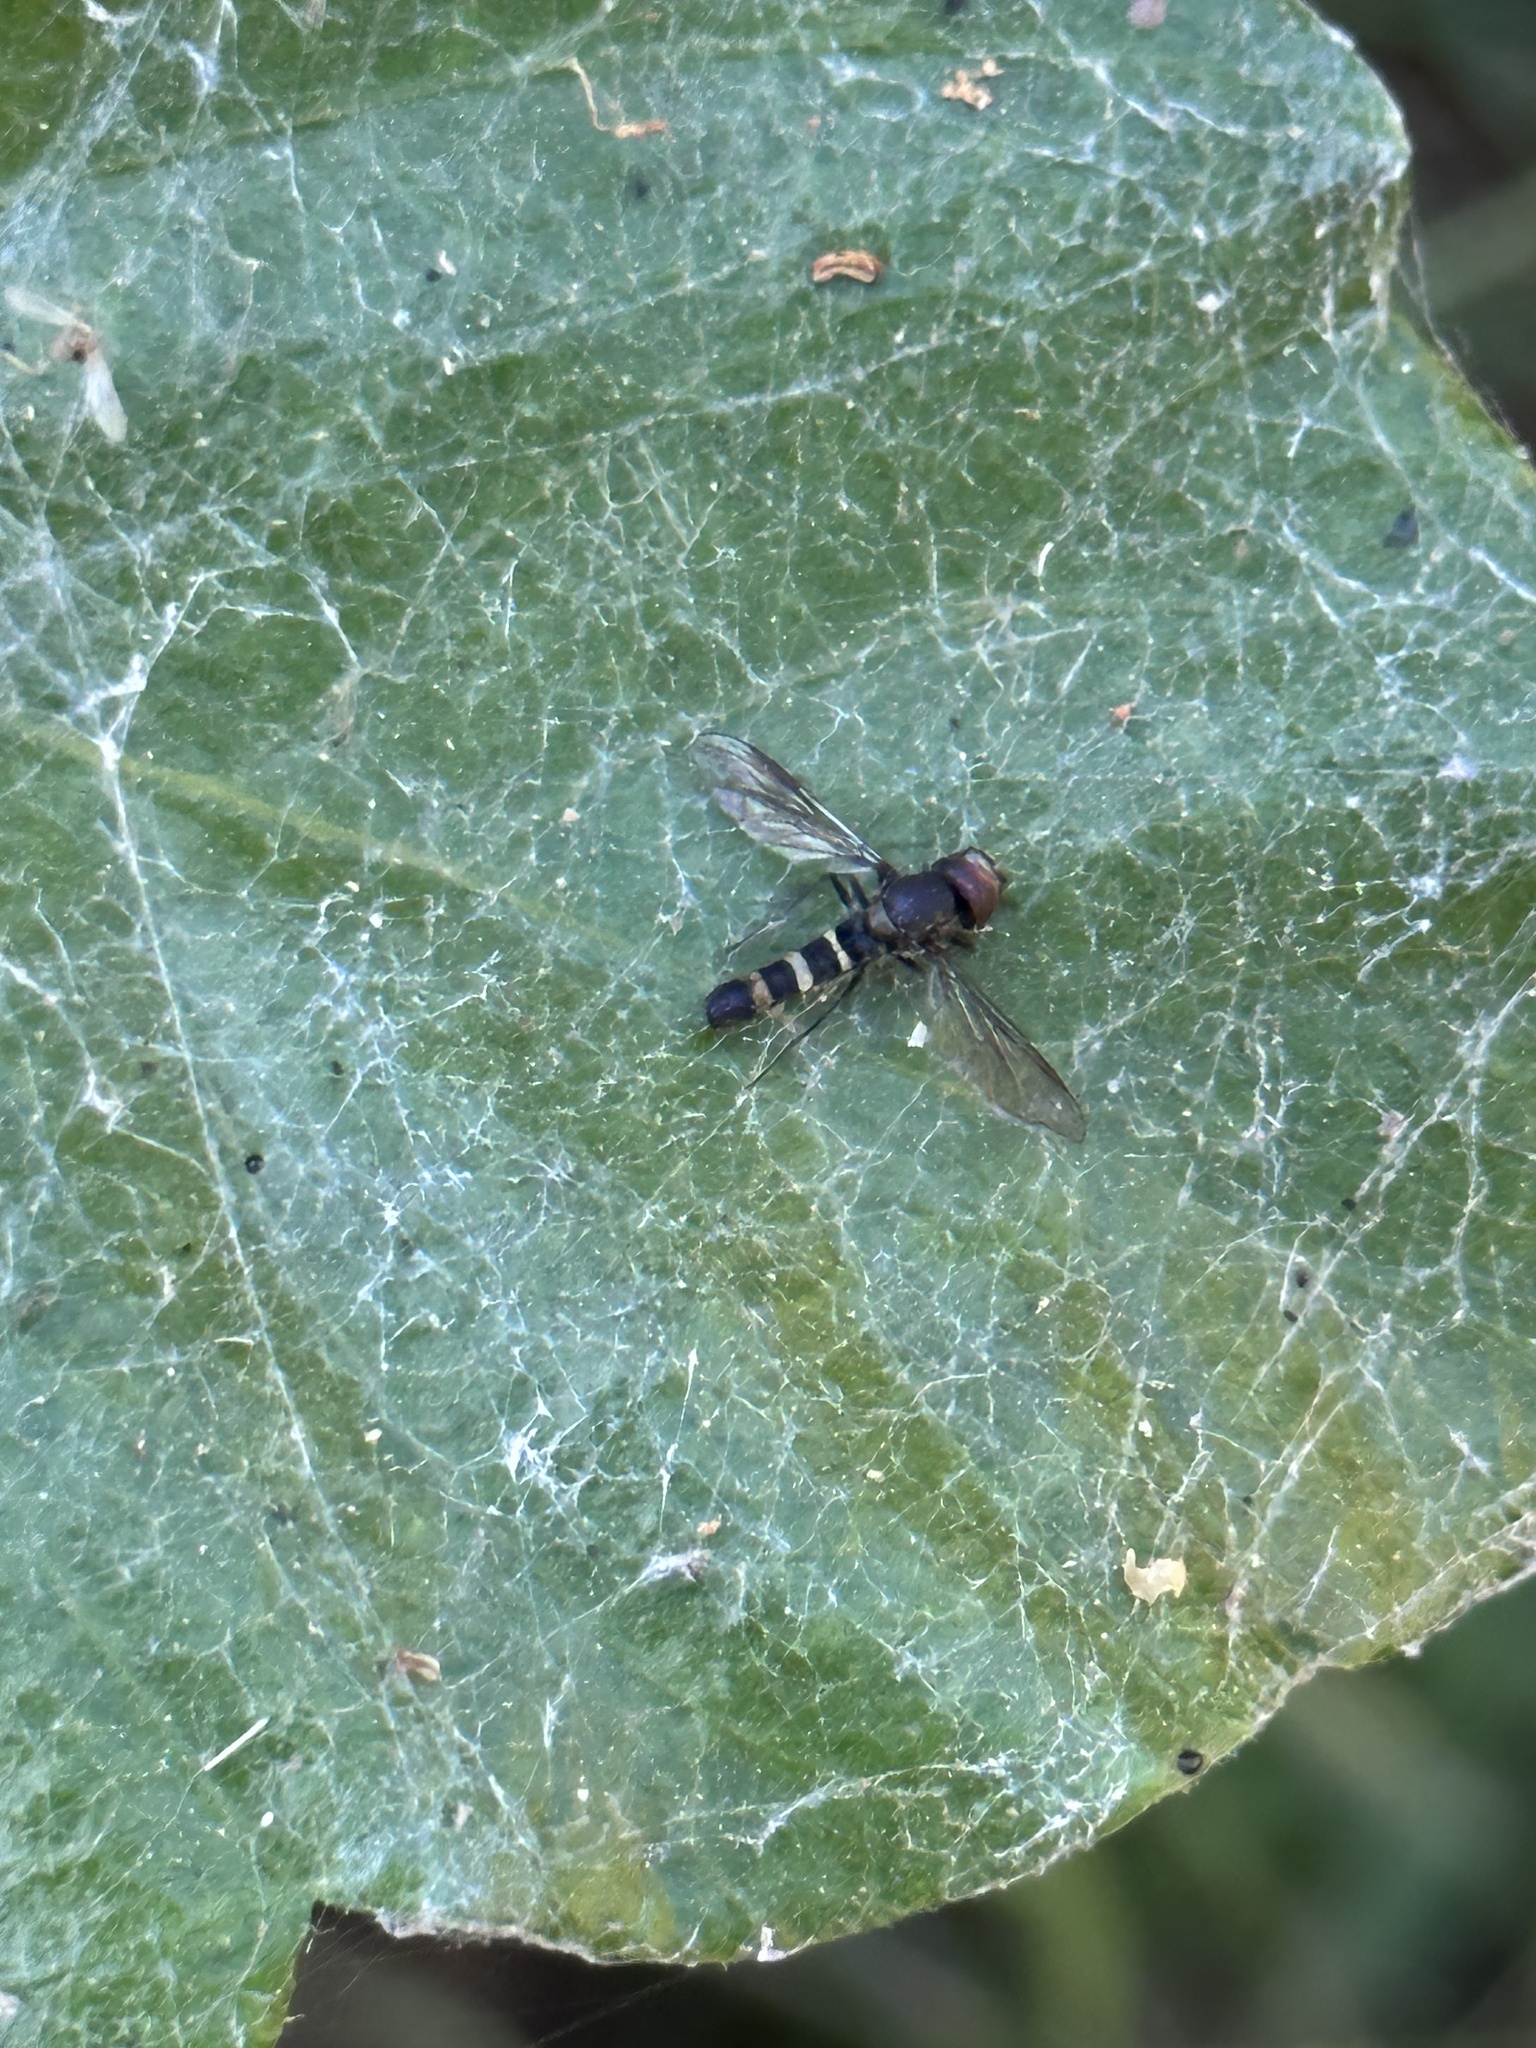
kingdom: Animalia
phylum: Arthropoda
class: Insecta
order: Diptera
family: Syrphidae
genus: Fazia
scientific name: Fazia micrura
